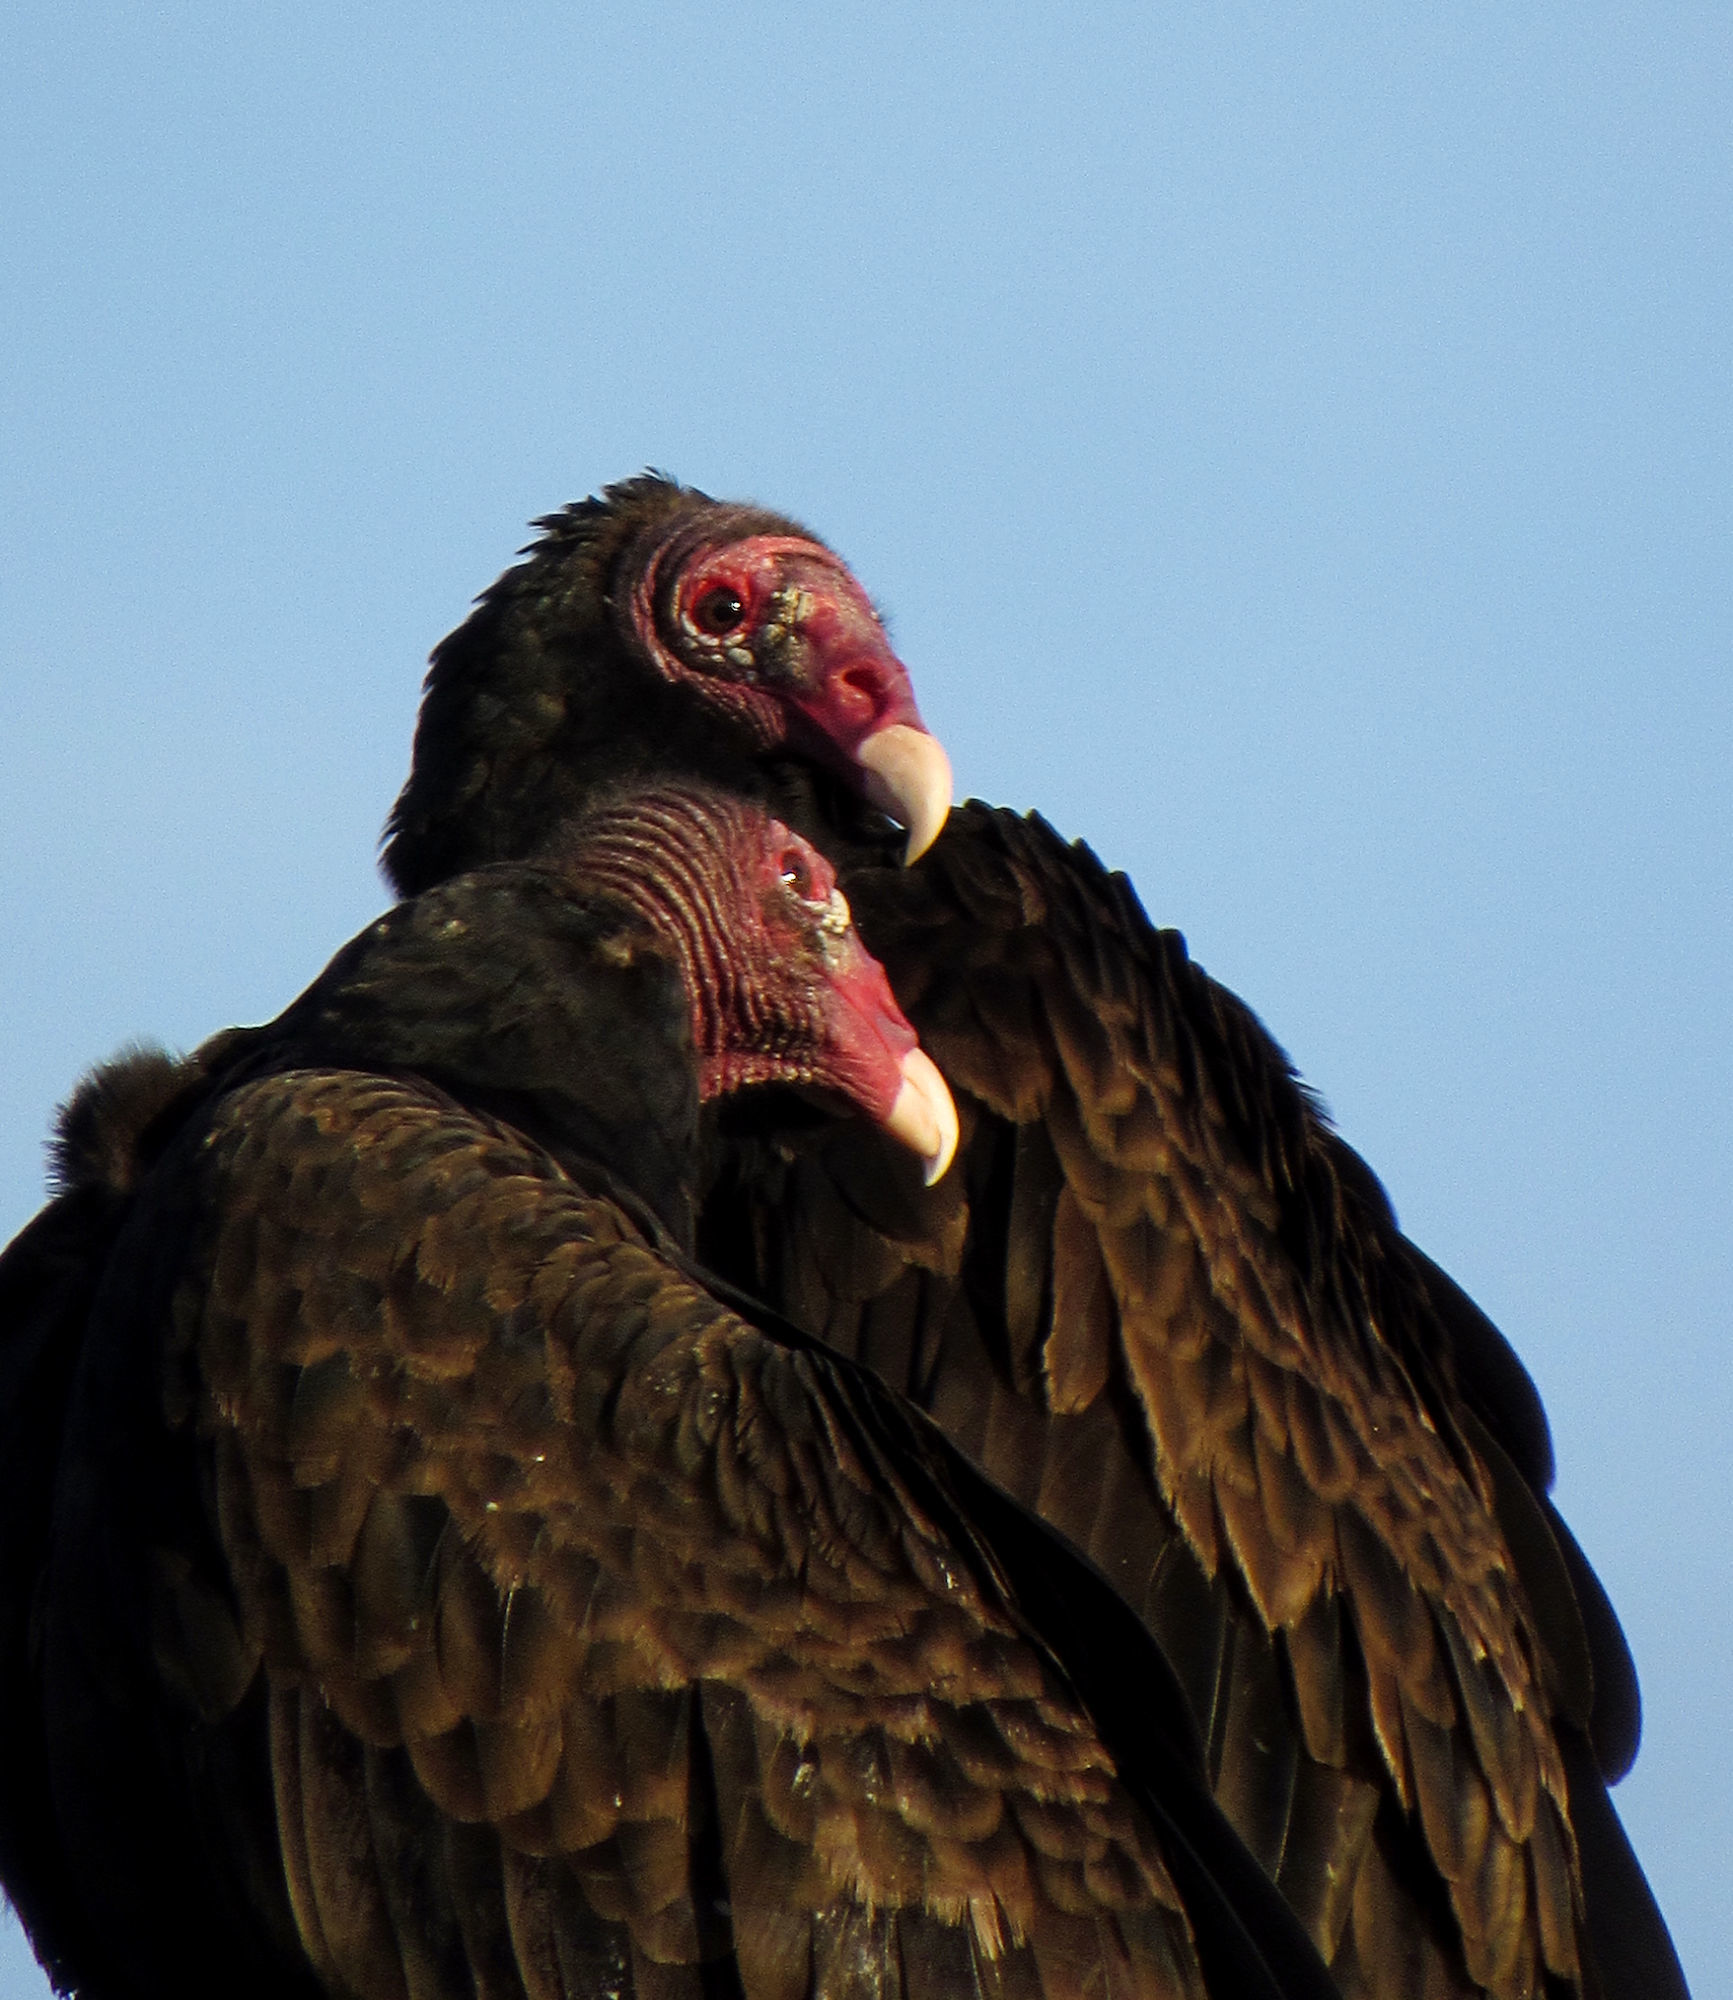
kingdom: Animalia
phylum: Chordata
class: Aves
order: Accipitriformes
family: Cathartidae
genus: Cathartes
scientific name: Cathartes aura
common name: Turkey vulture
